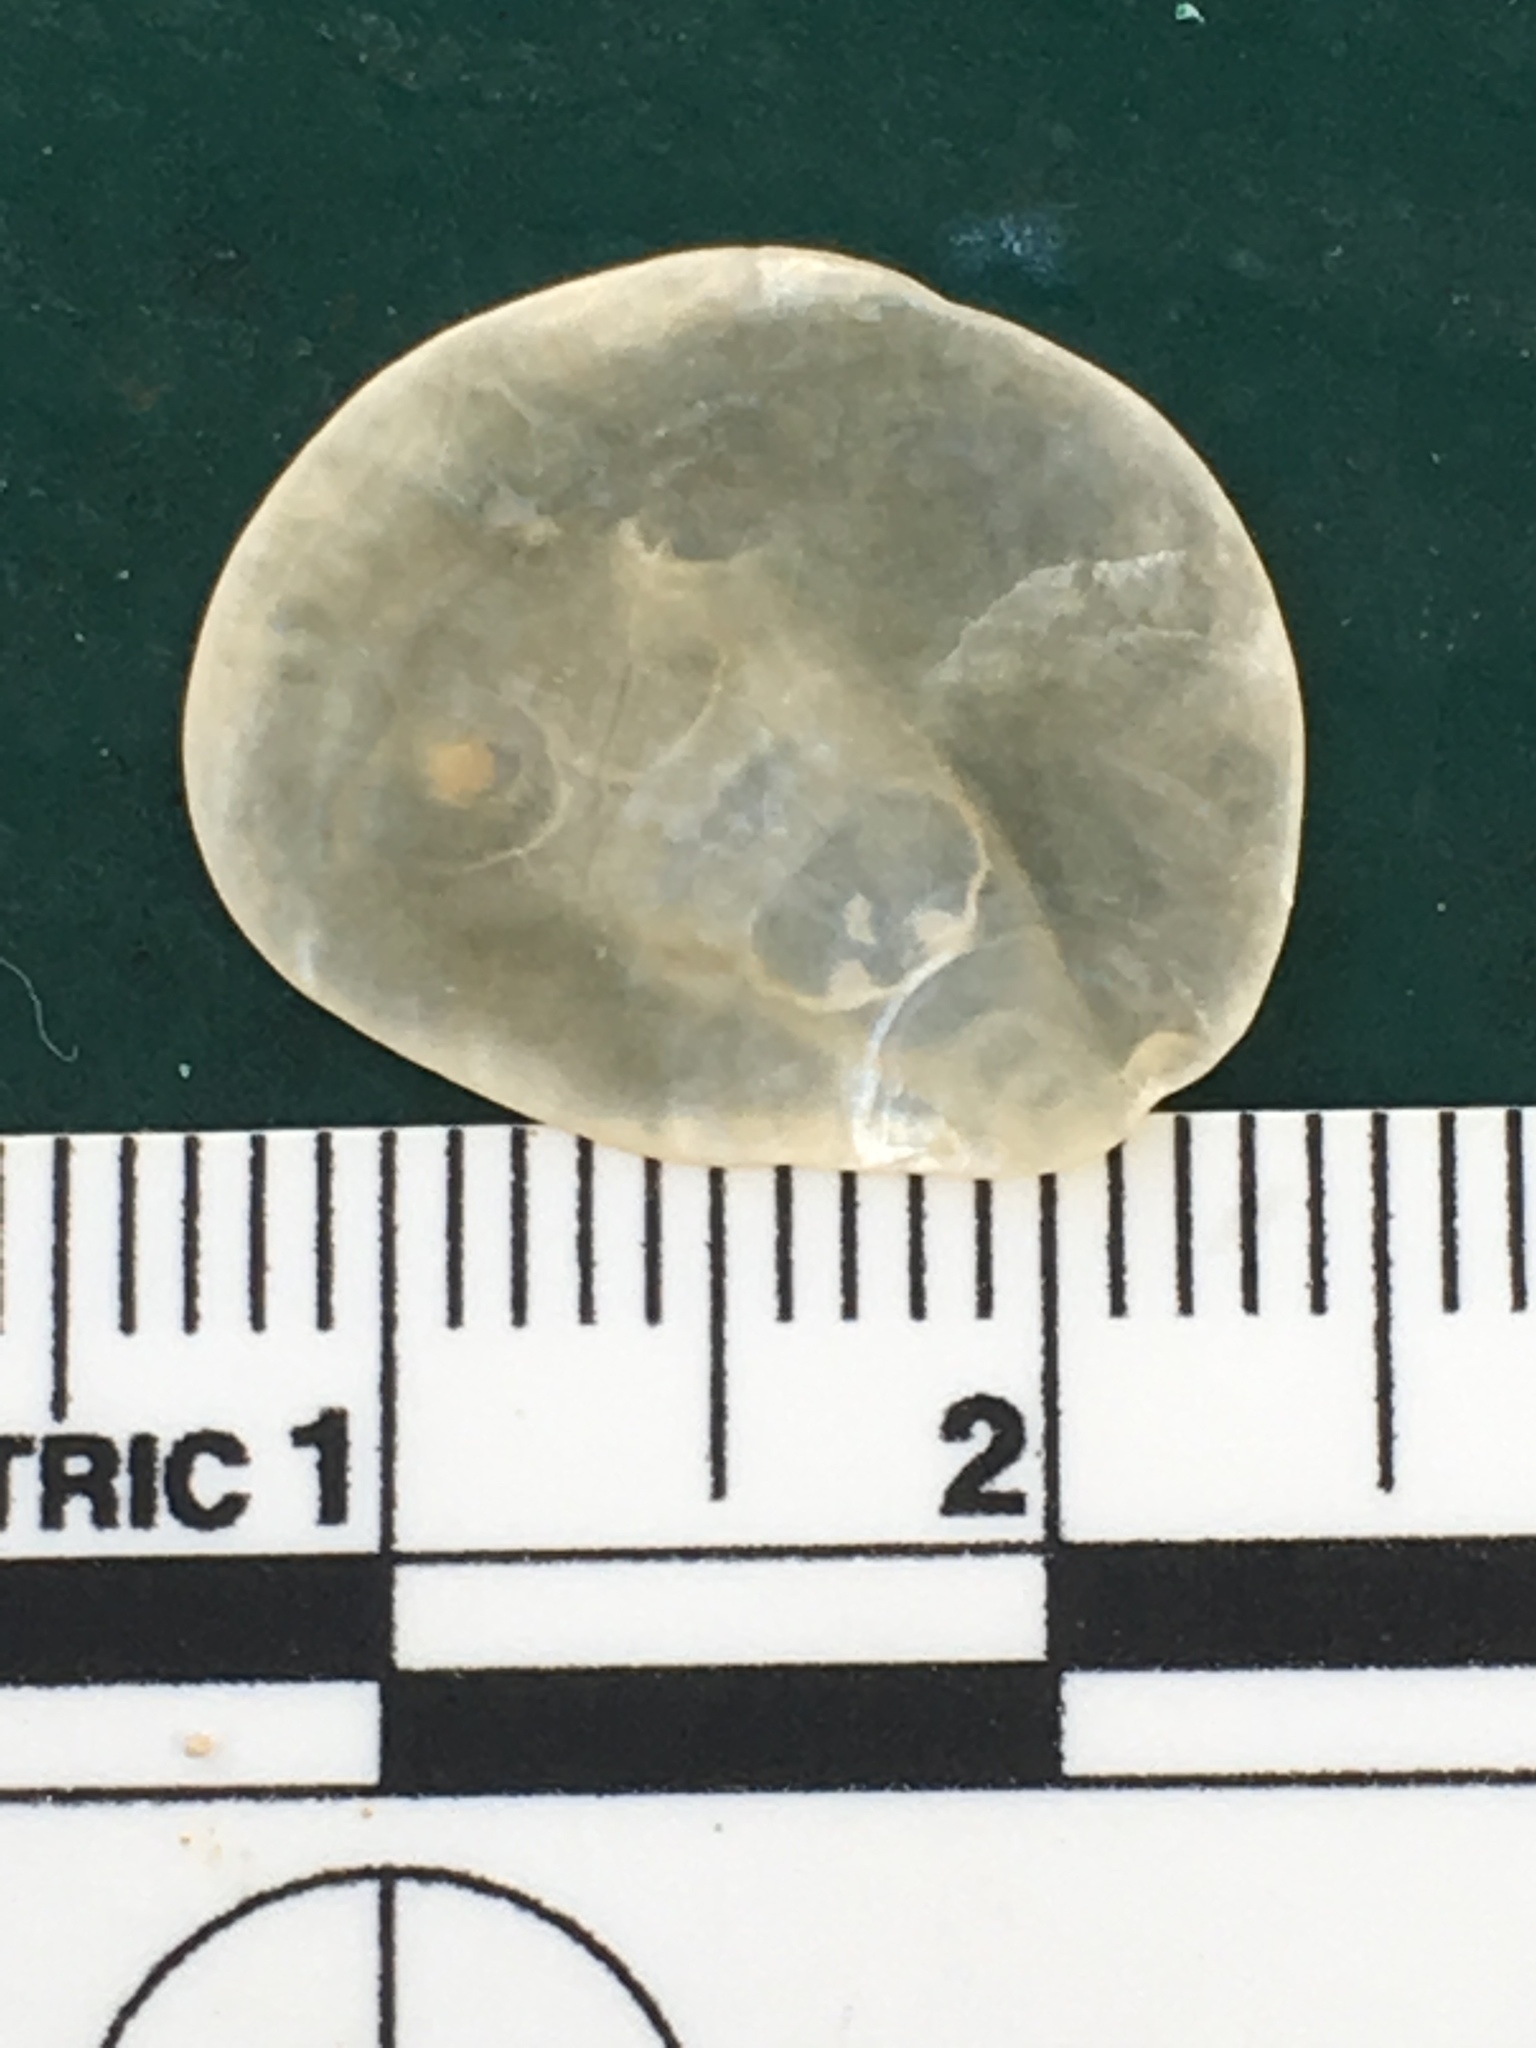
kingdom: Animalia
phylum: Mollusca
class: Bivalvia
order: Pectinida
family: Anomiidae
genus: Anomia
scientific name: Anomia simplex
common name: Common jingle shell
